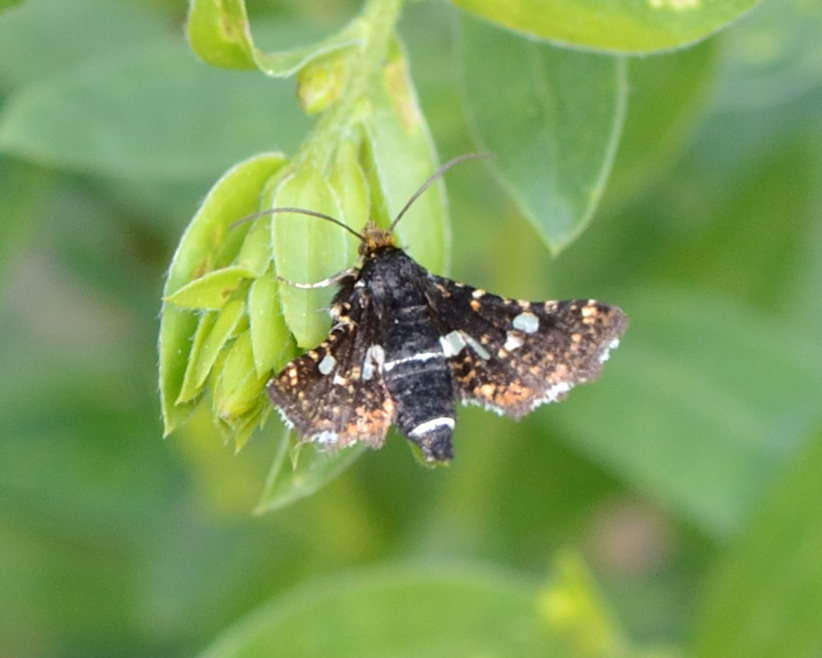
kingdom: Animalia
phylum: Arthropoda
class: Insecta
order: Lepidoptera
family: Thyrididae
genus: Thyris
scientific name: Thyris fenestrella
